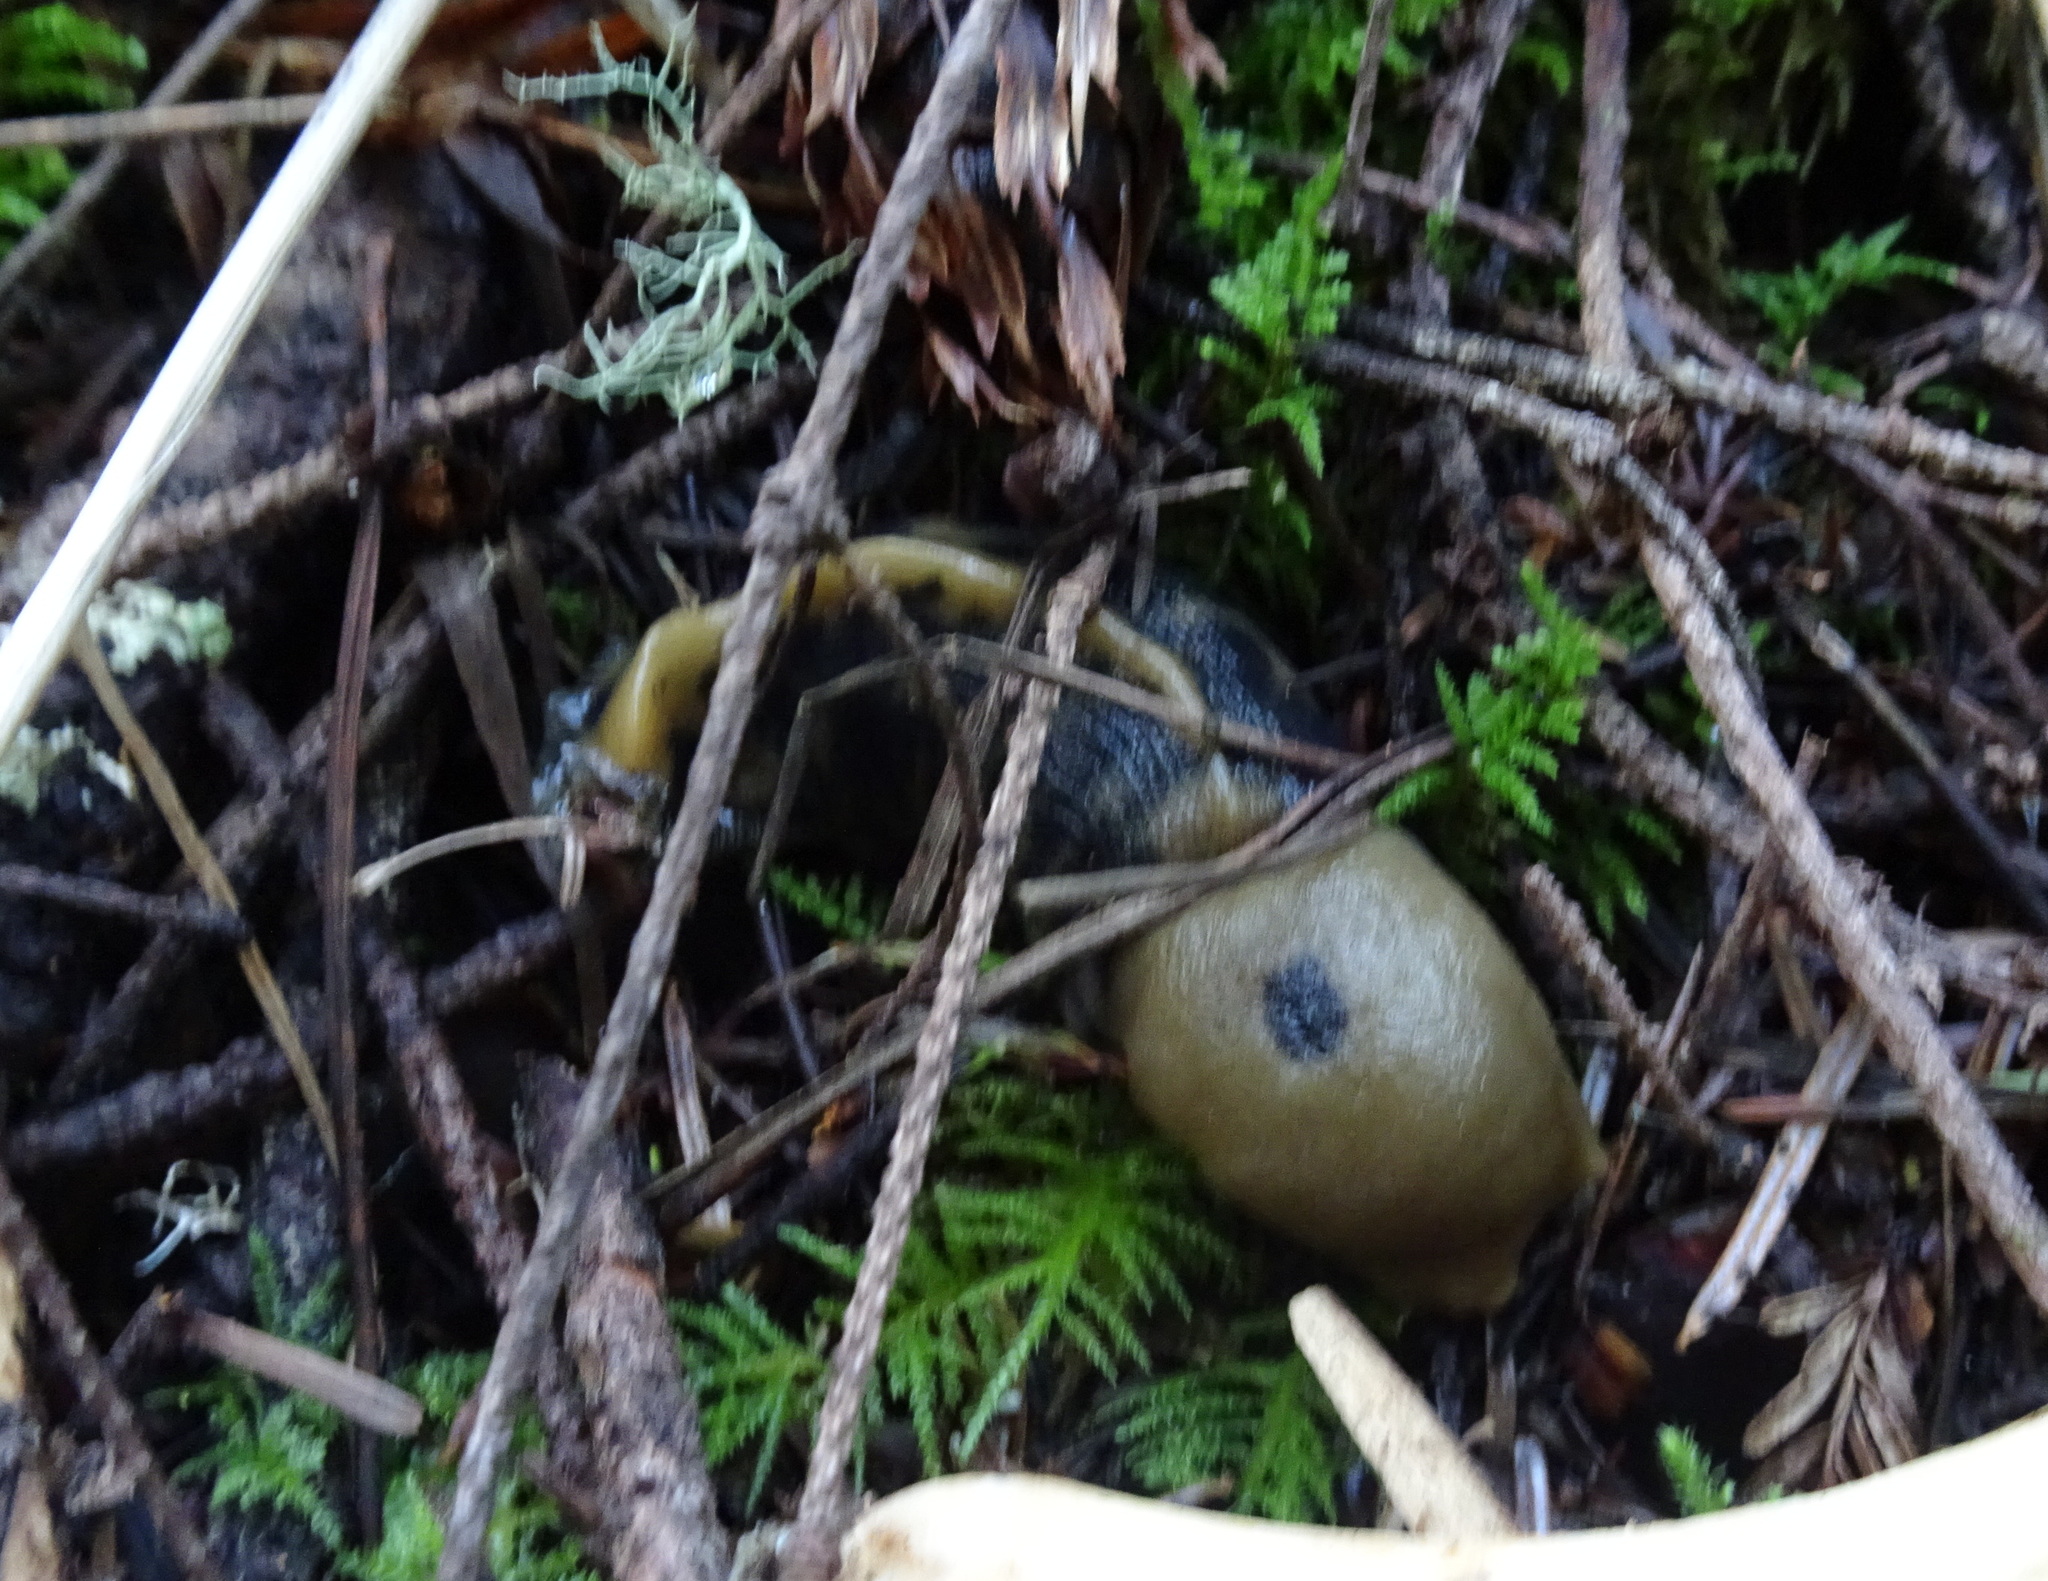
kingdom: Animalia
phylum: Mollusca
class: Gastropoda
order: Stylommatophora
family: Ariolimacidae
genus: Ariolimax
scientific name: Ariolimax buttoni
